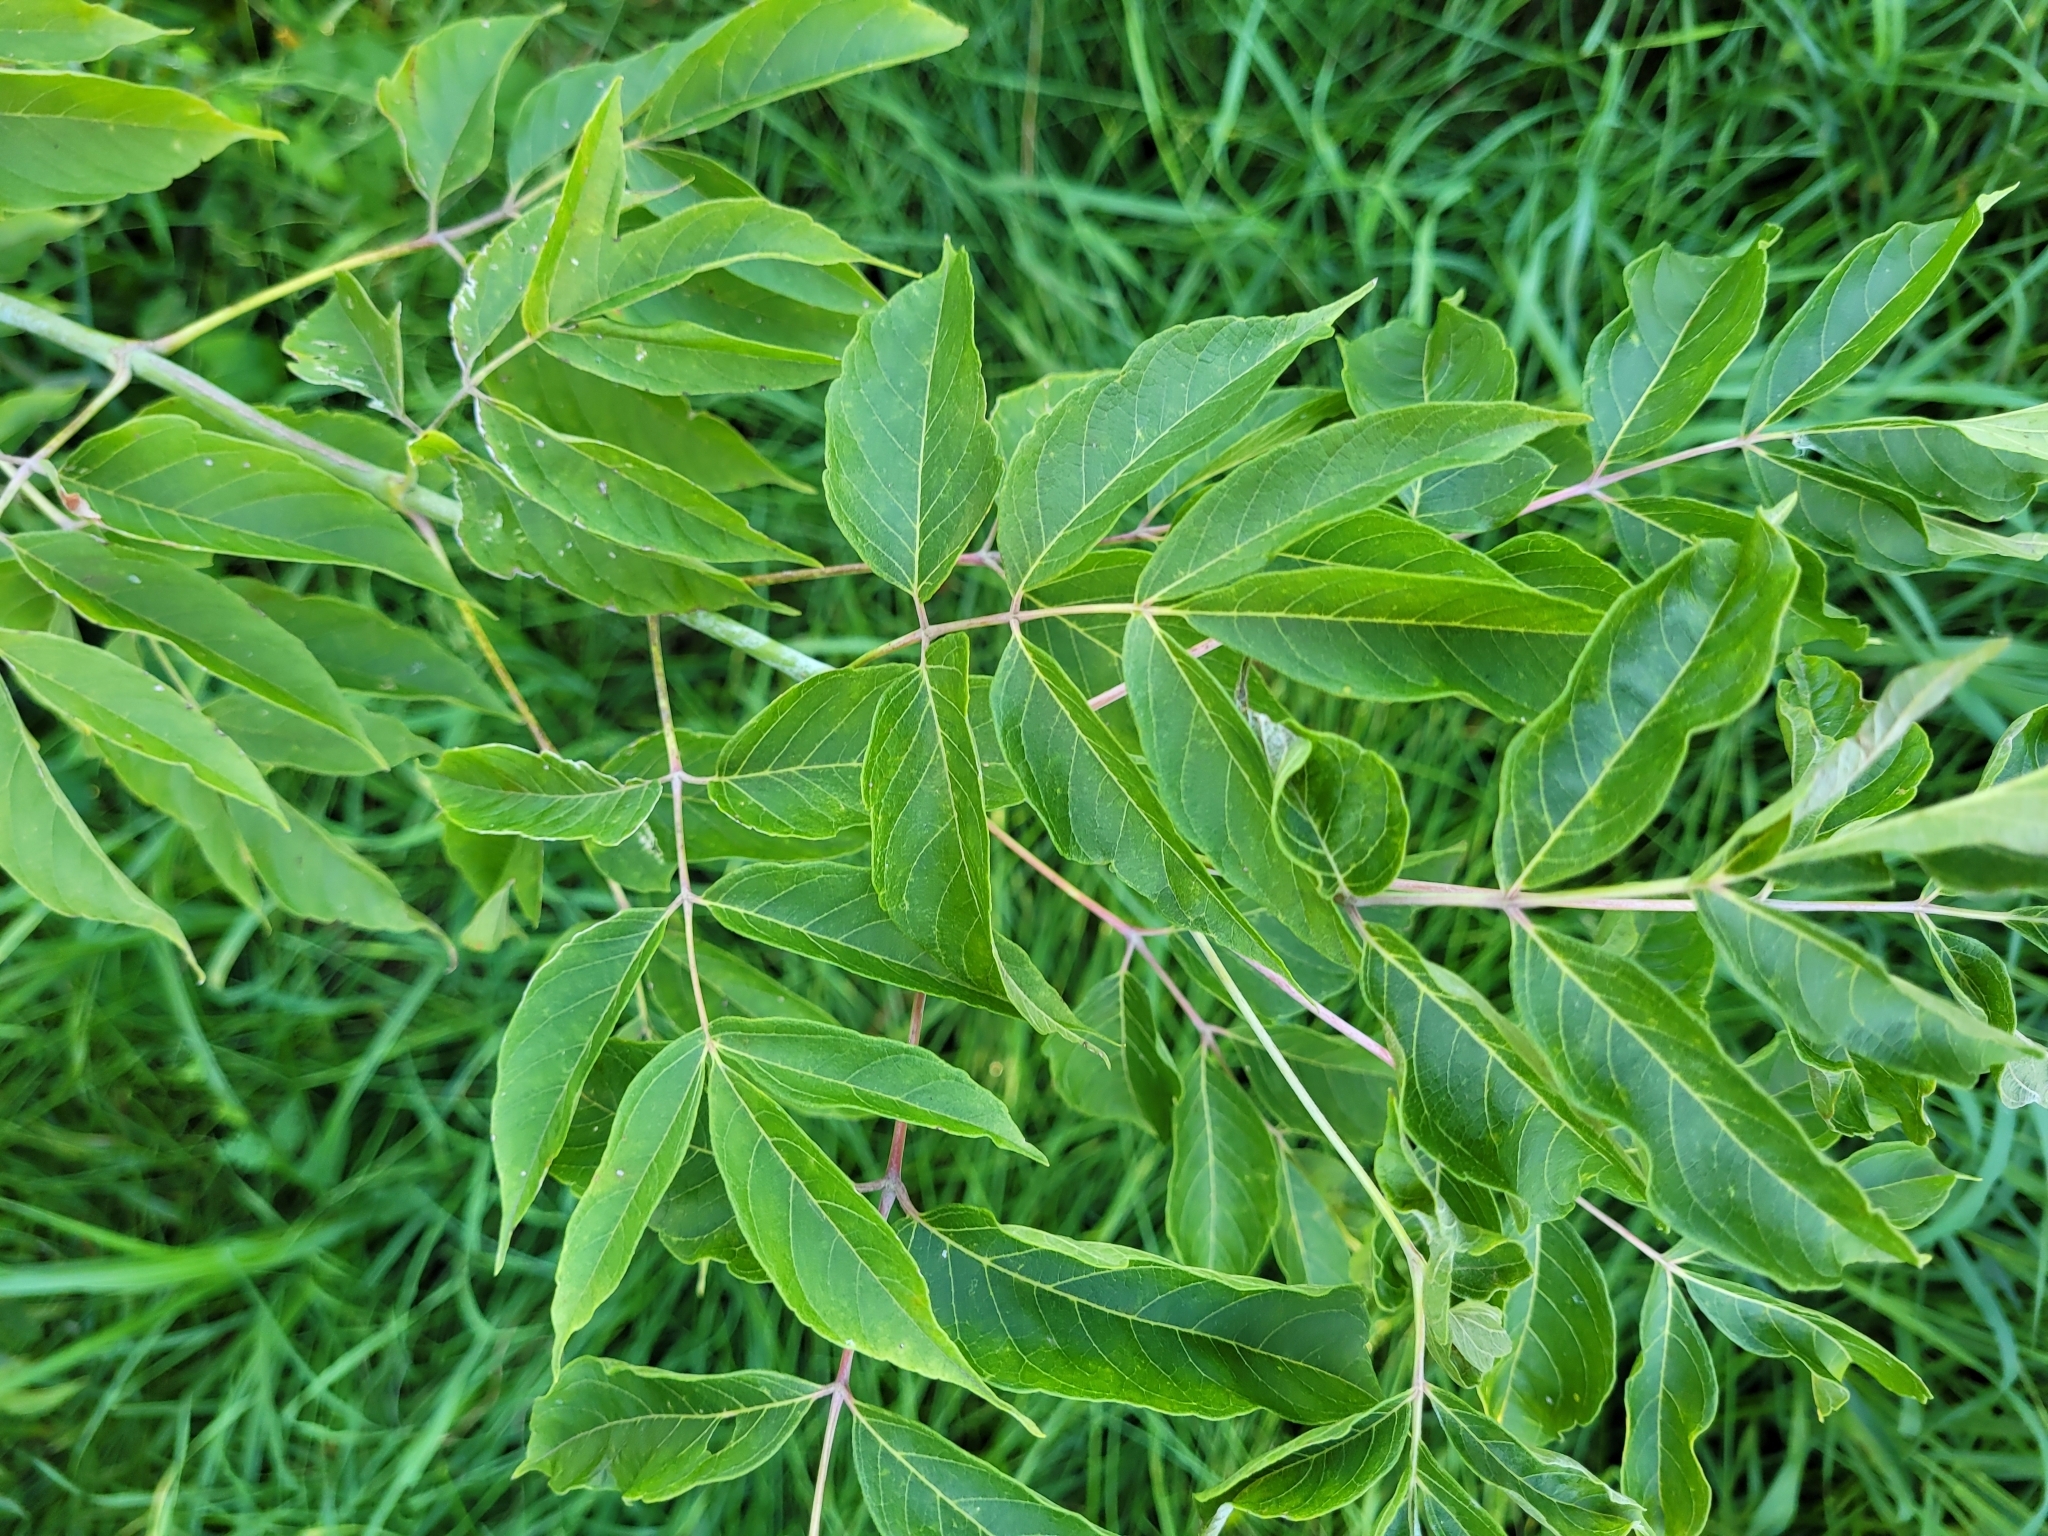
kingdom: Plantae
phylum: Tracheophyta
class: Magnoliopsida
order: Sapindales
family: Sapindaceae
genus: Acer
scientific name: Acer negundo
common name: Ashleaf maple
